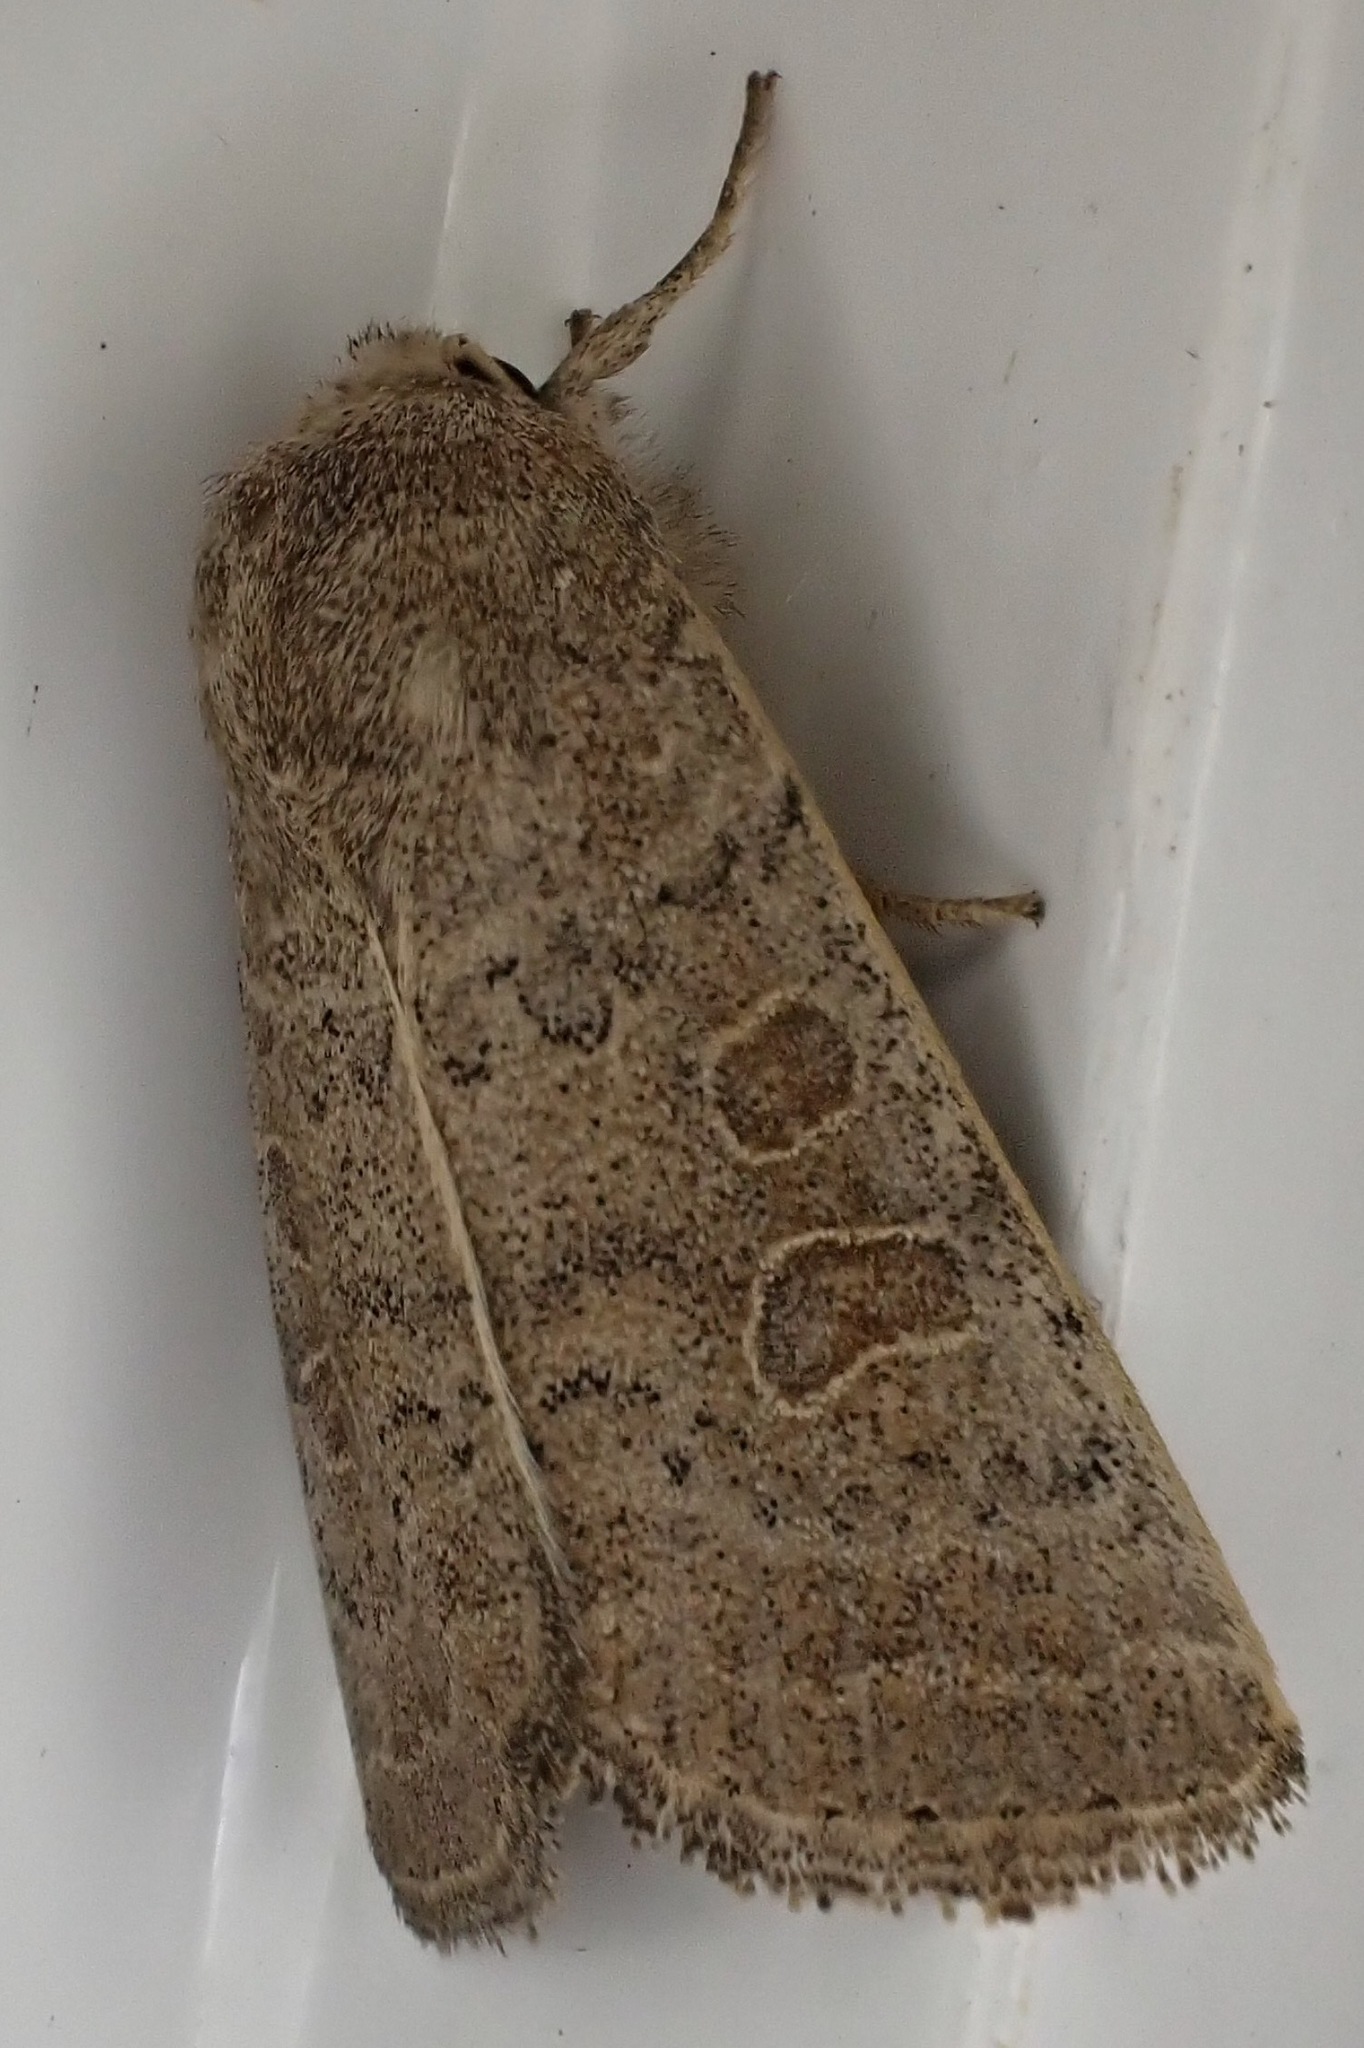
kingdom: Animalia
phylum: Arthropoda
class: Insecta
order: Lepidoptera
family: Noctuidae
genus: Hoplodrina
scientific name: Hoplodrina ambigua
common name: Vine's rustic
